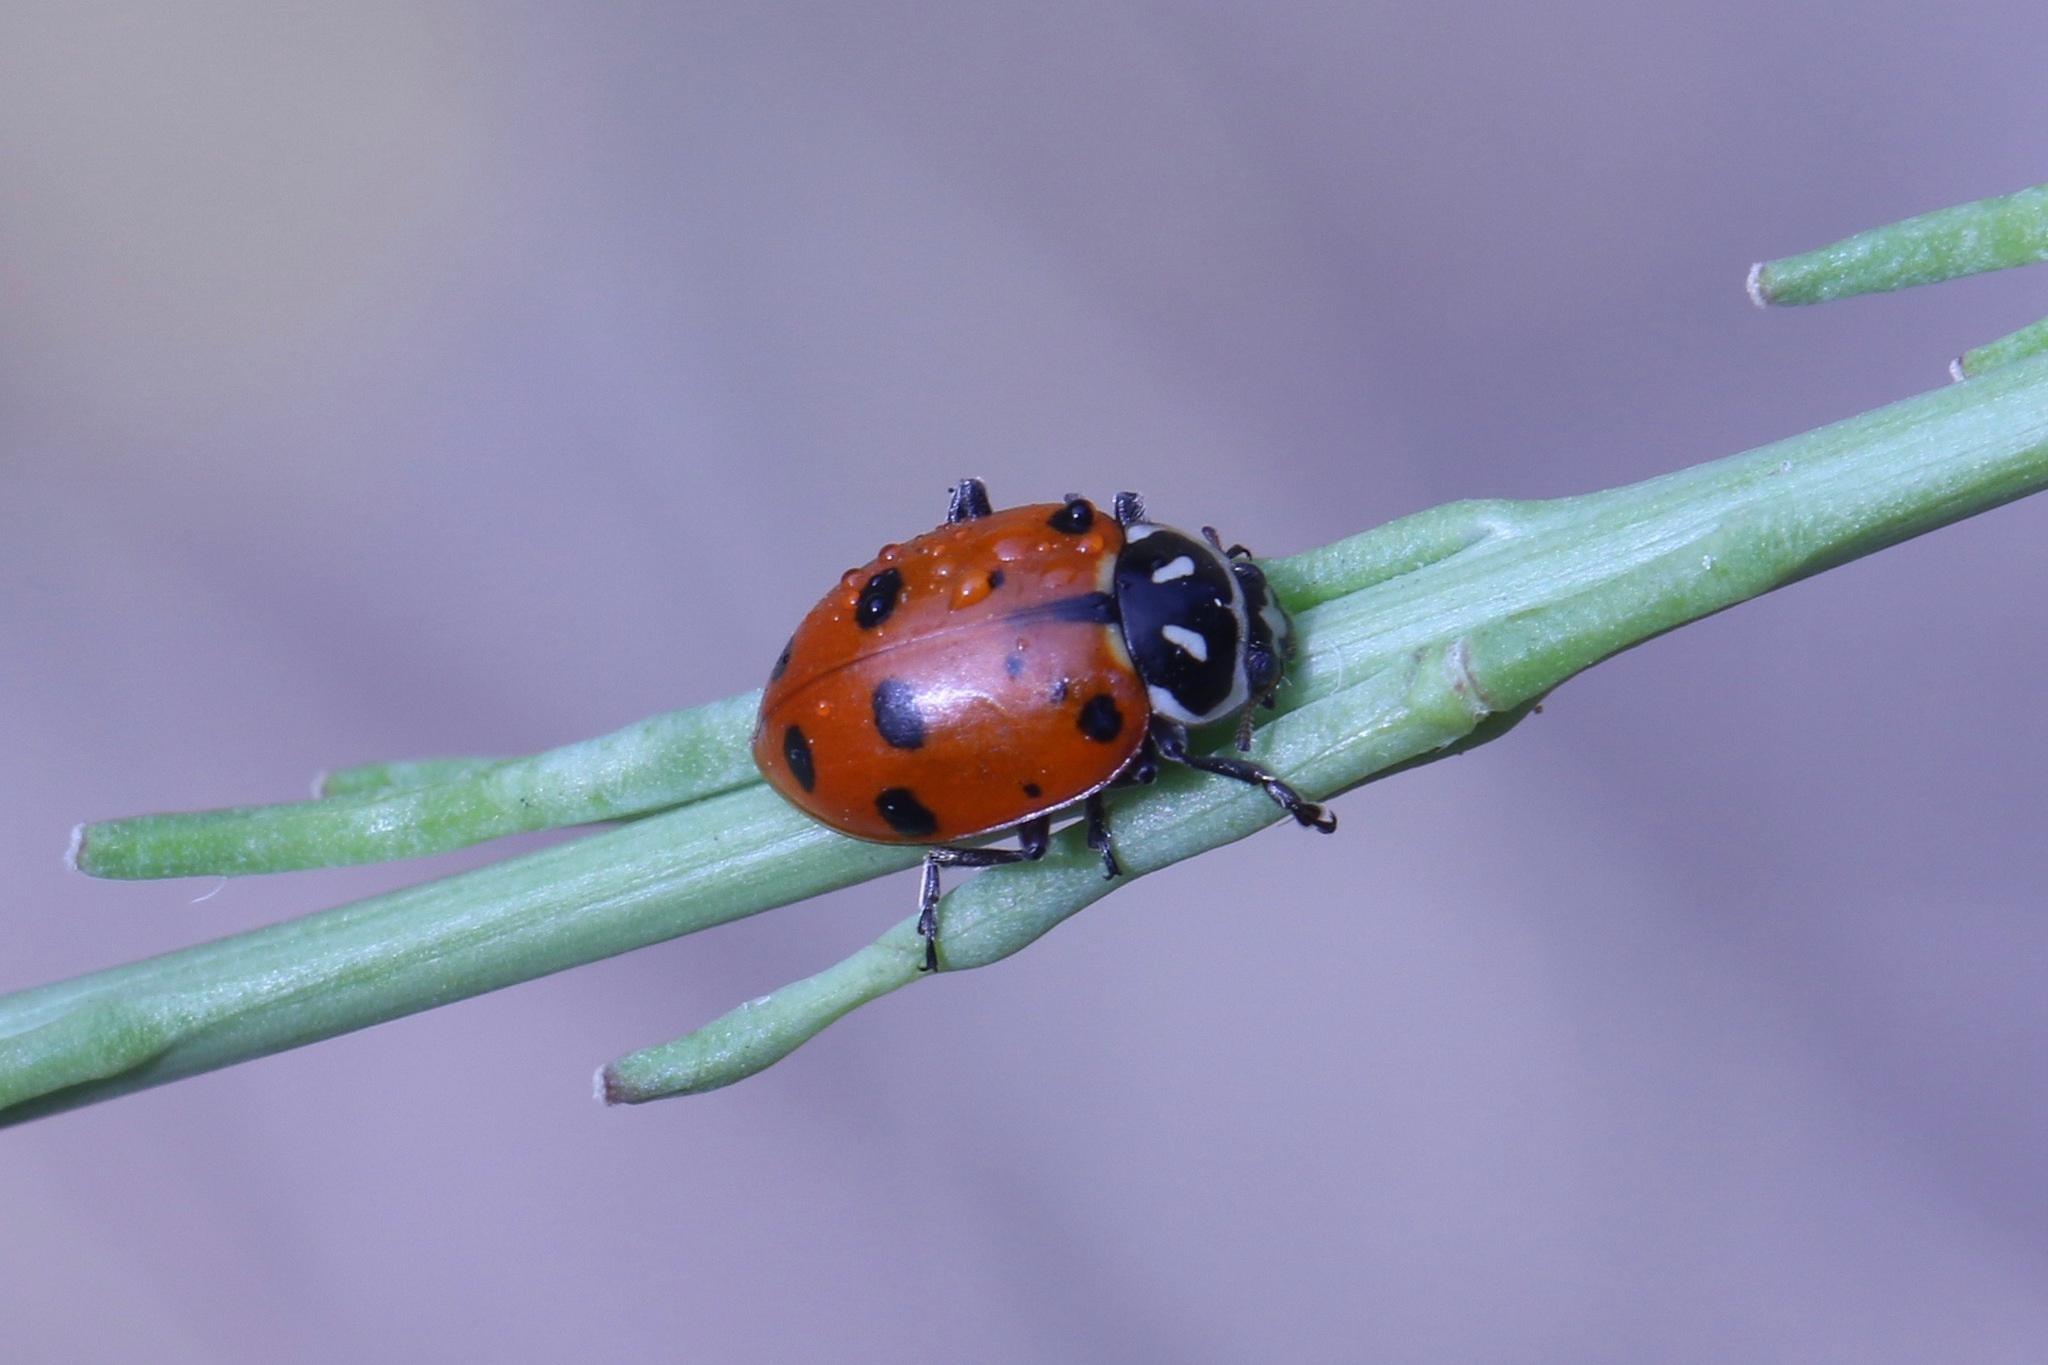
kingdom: Animalia
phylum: Arthropoda
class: Insecta
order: Coleoptera
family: Coccinellidae
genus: Hippodamia
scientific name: Hippodamia convergens
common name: Convergent lady beetle
